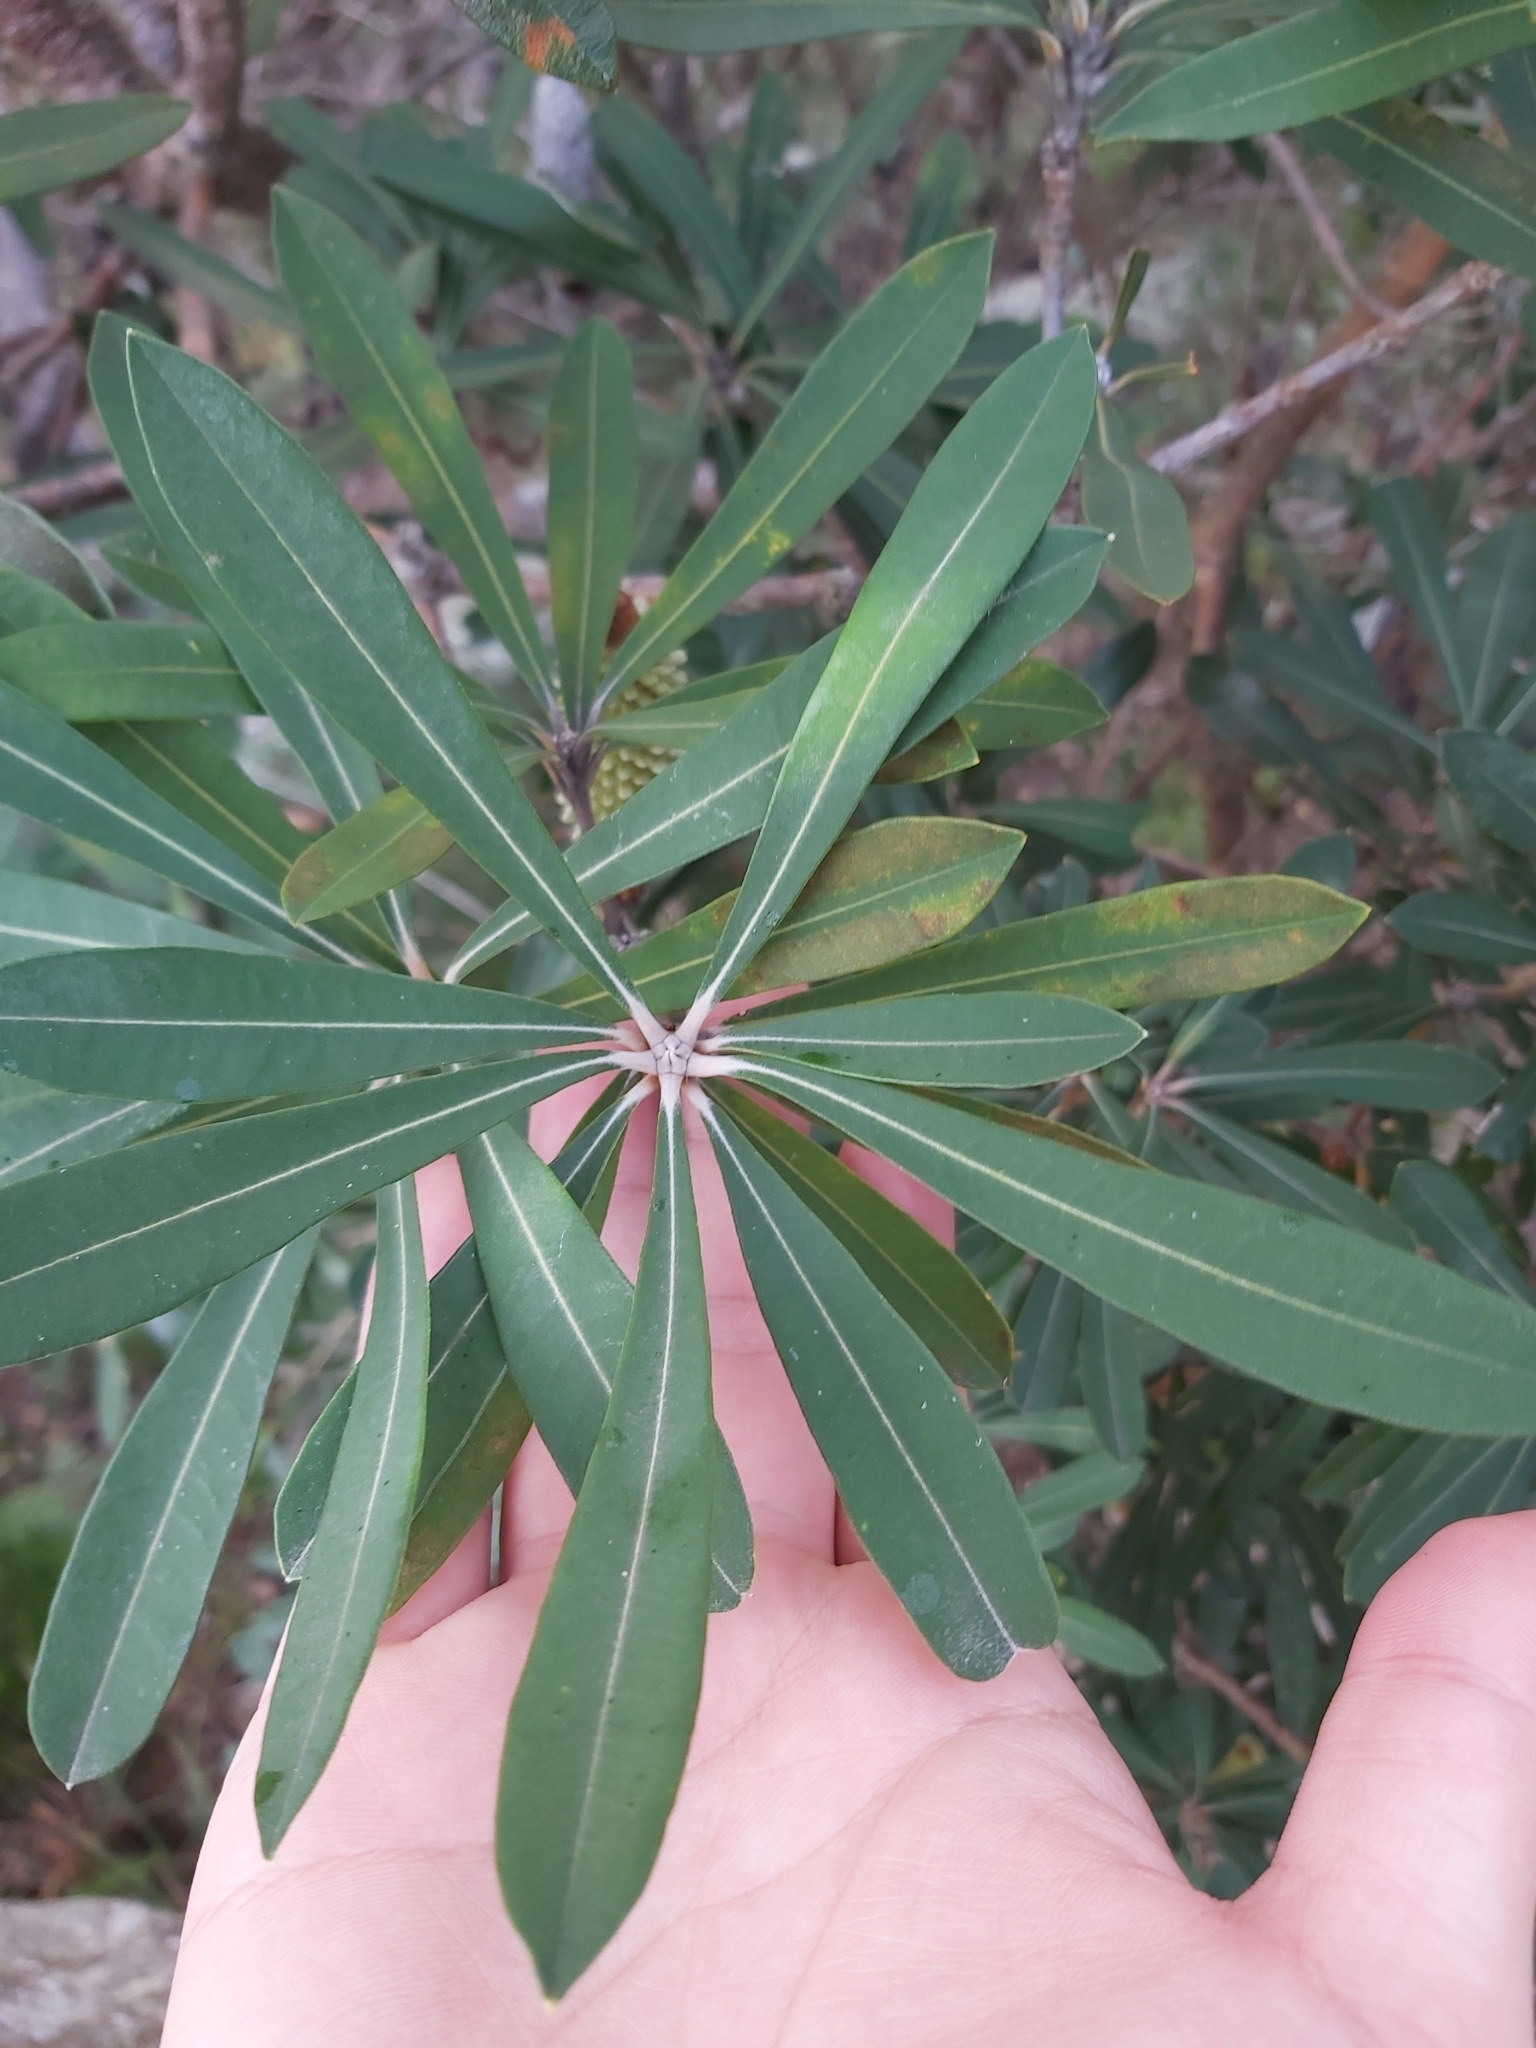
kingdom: Plantae
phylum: Tracheophyta
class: Magnoliopsida
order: Proteales
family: Proteaceae
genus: Banksia
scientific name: Banksia integrifolia
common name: White-honeysuckle
